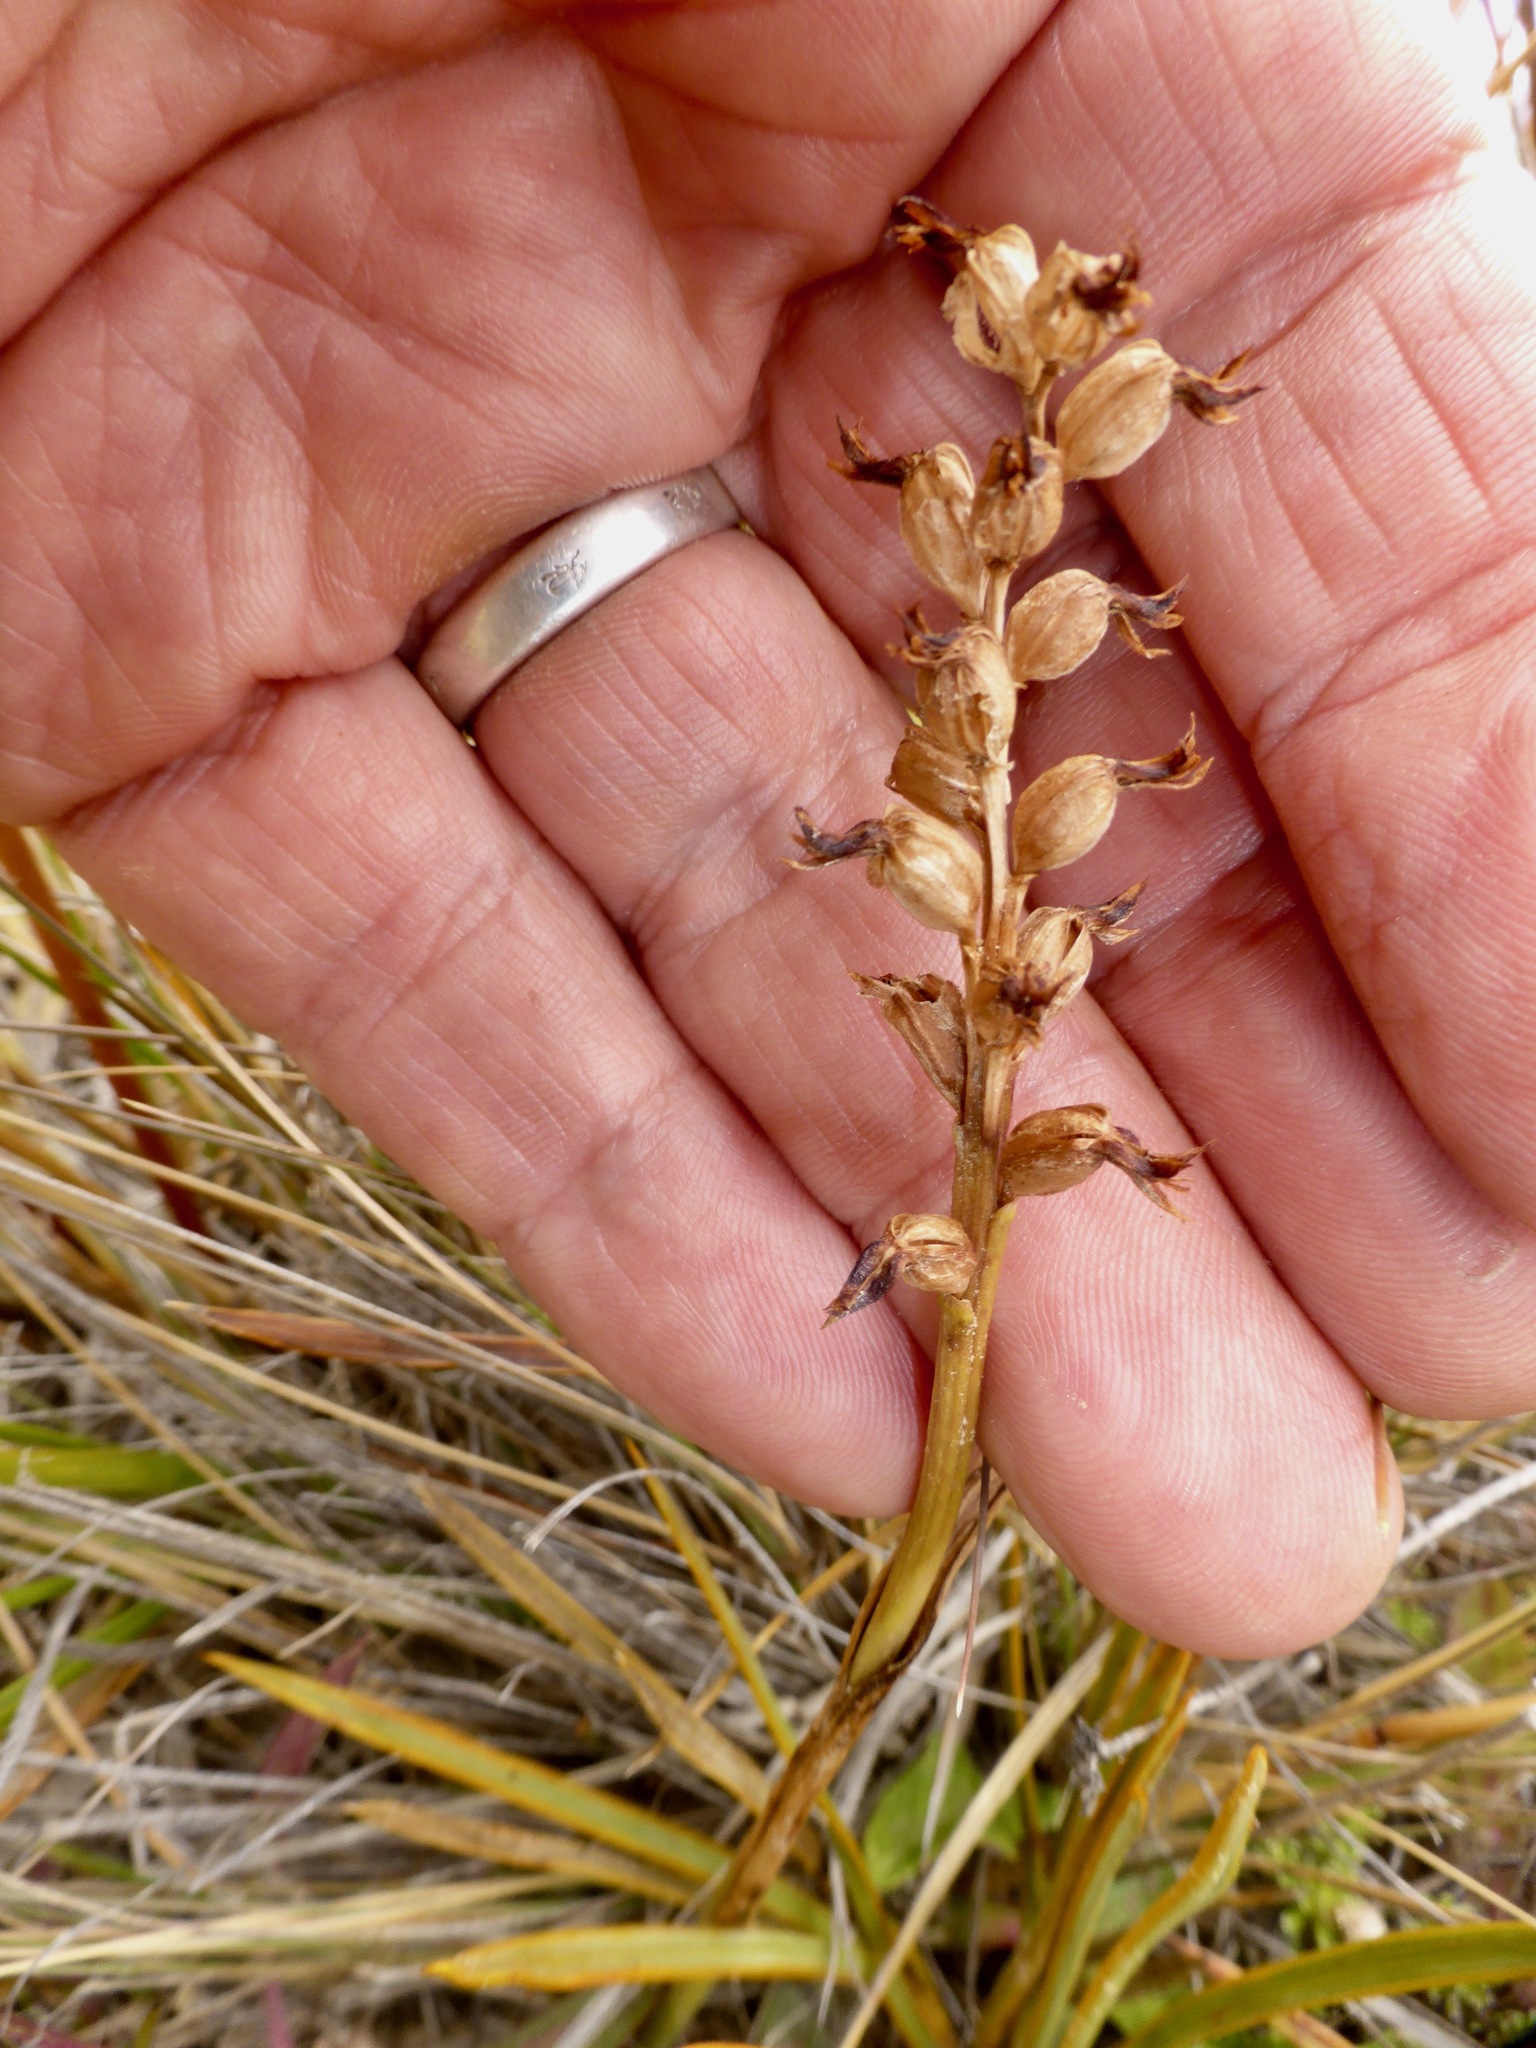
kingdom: Plantae
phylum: Tracheophyta
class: Liliopsida
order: Asparagales
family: Orchidaceae
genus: Prasophyllum
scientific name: Prasophyllum colensoi
